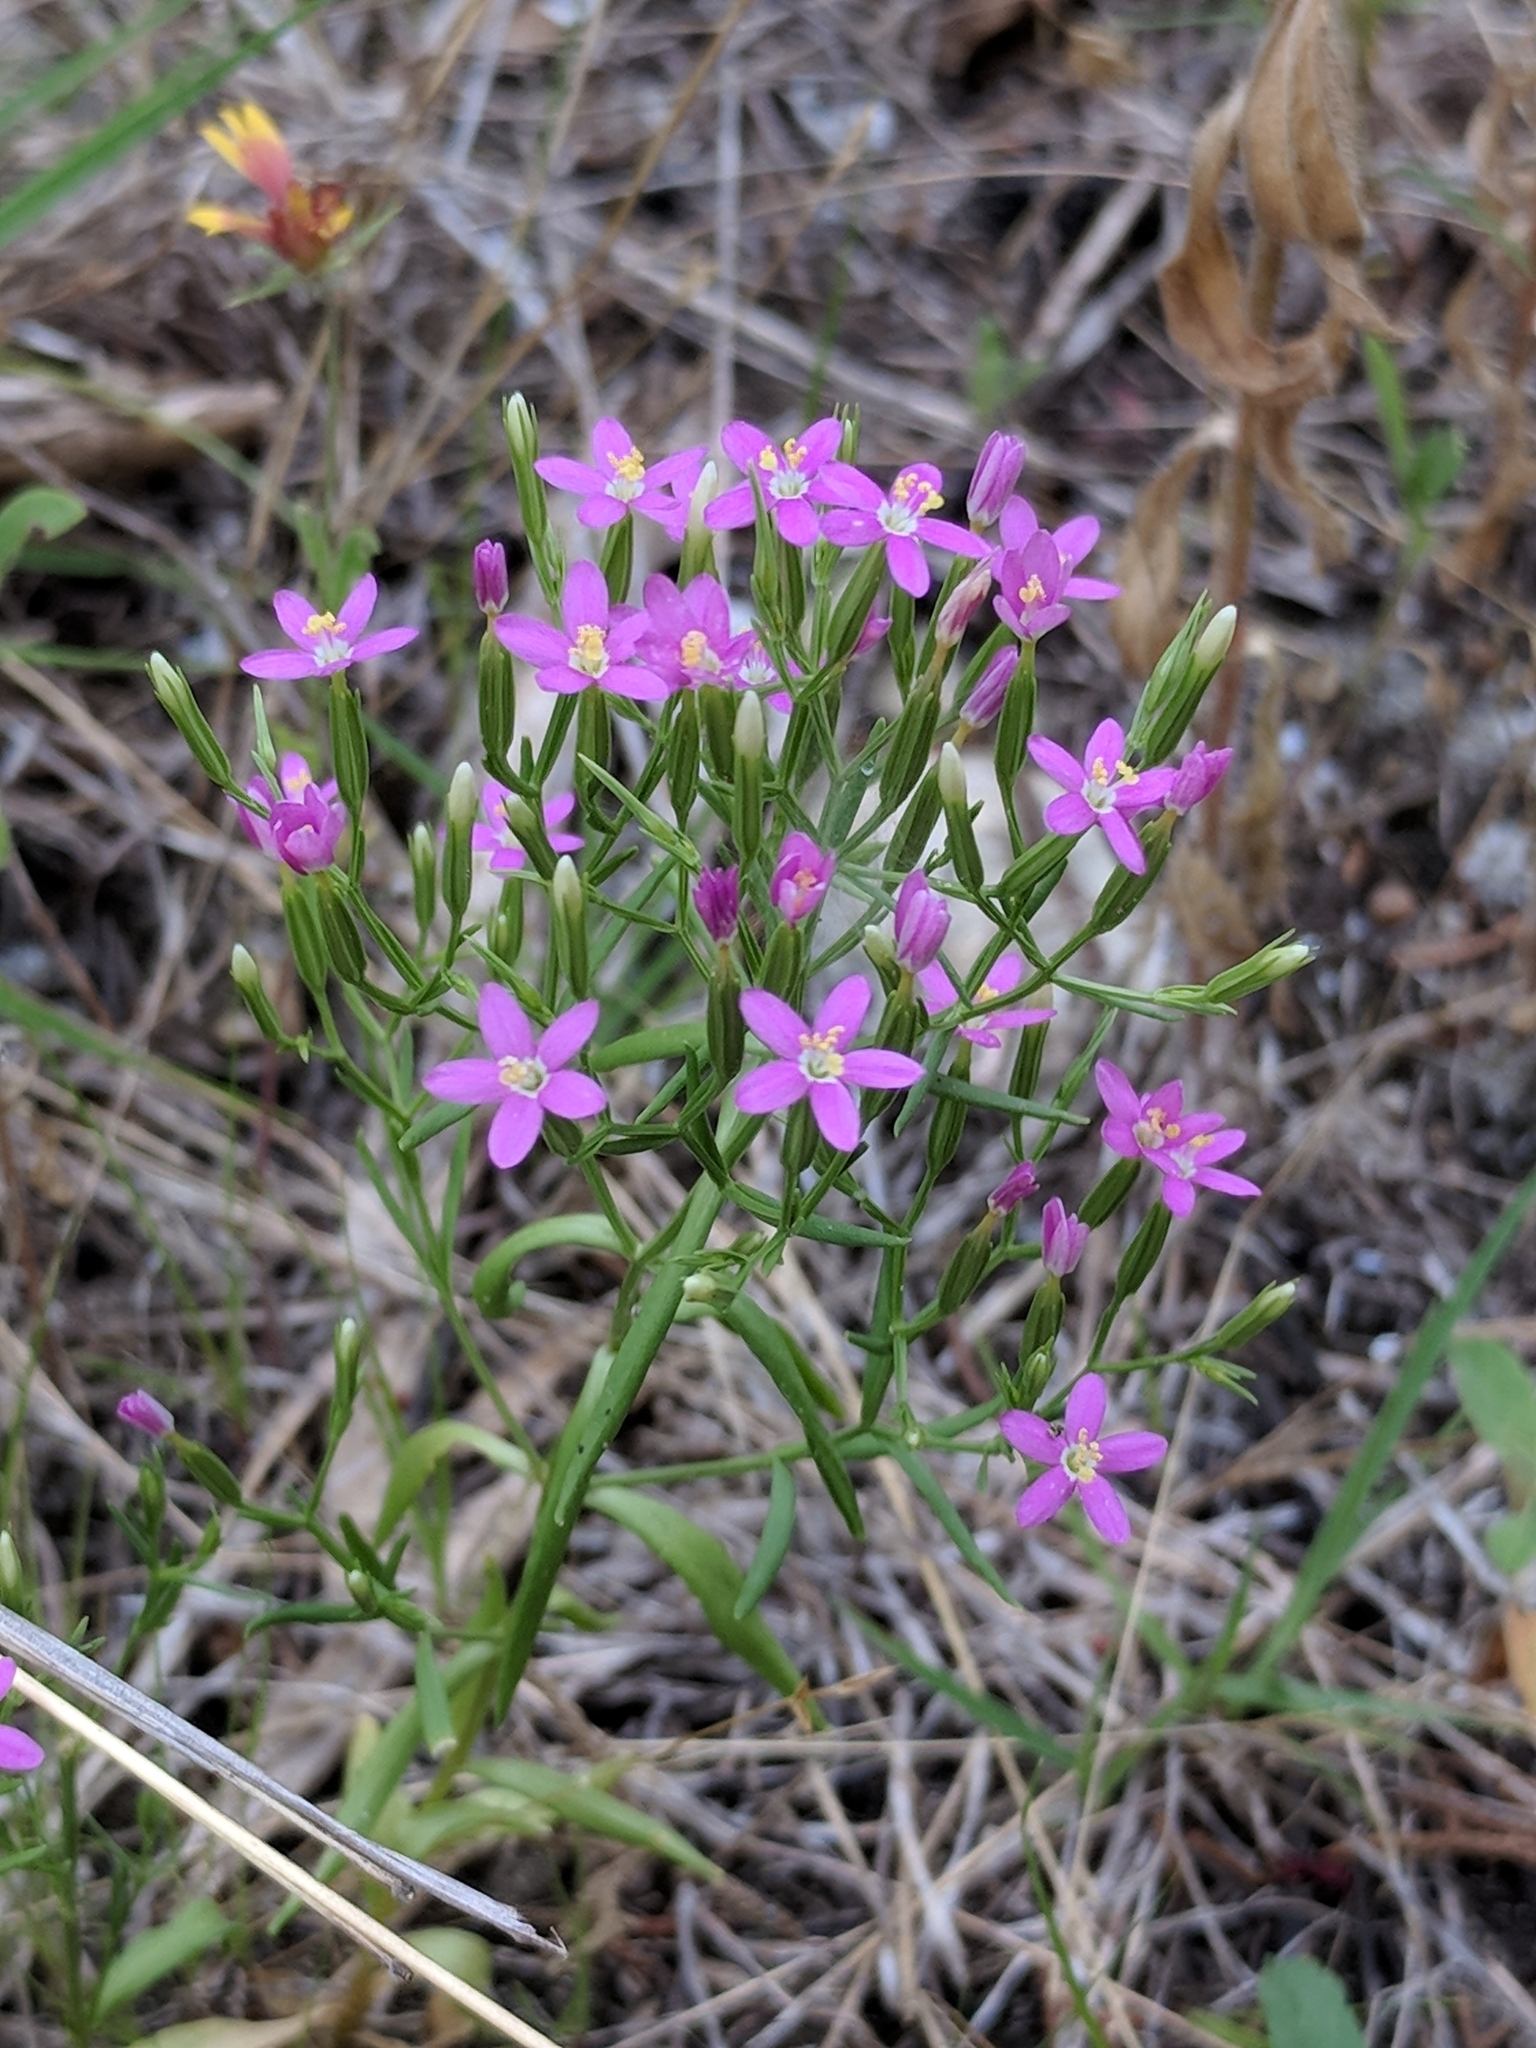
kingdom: Plantae
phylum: Tracheophyta
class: Magnoliopsida
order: Gentianales
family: Gentianaceae
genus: Zeltnera
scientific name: Zeltnera texensis
